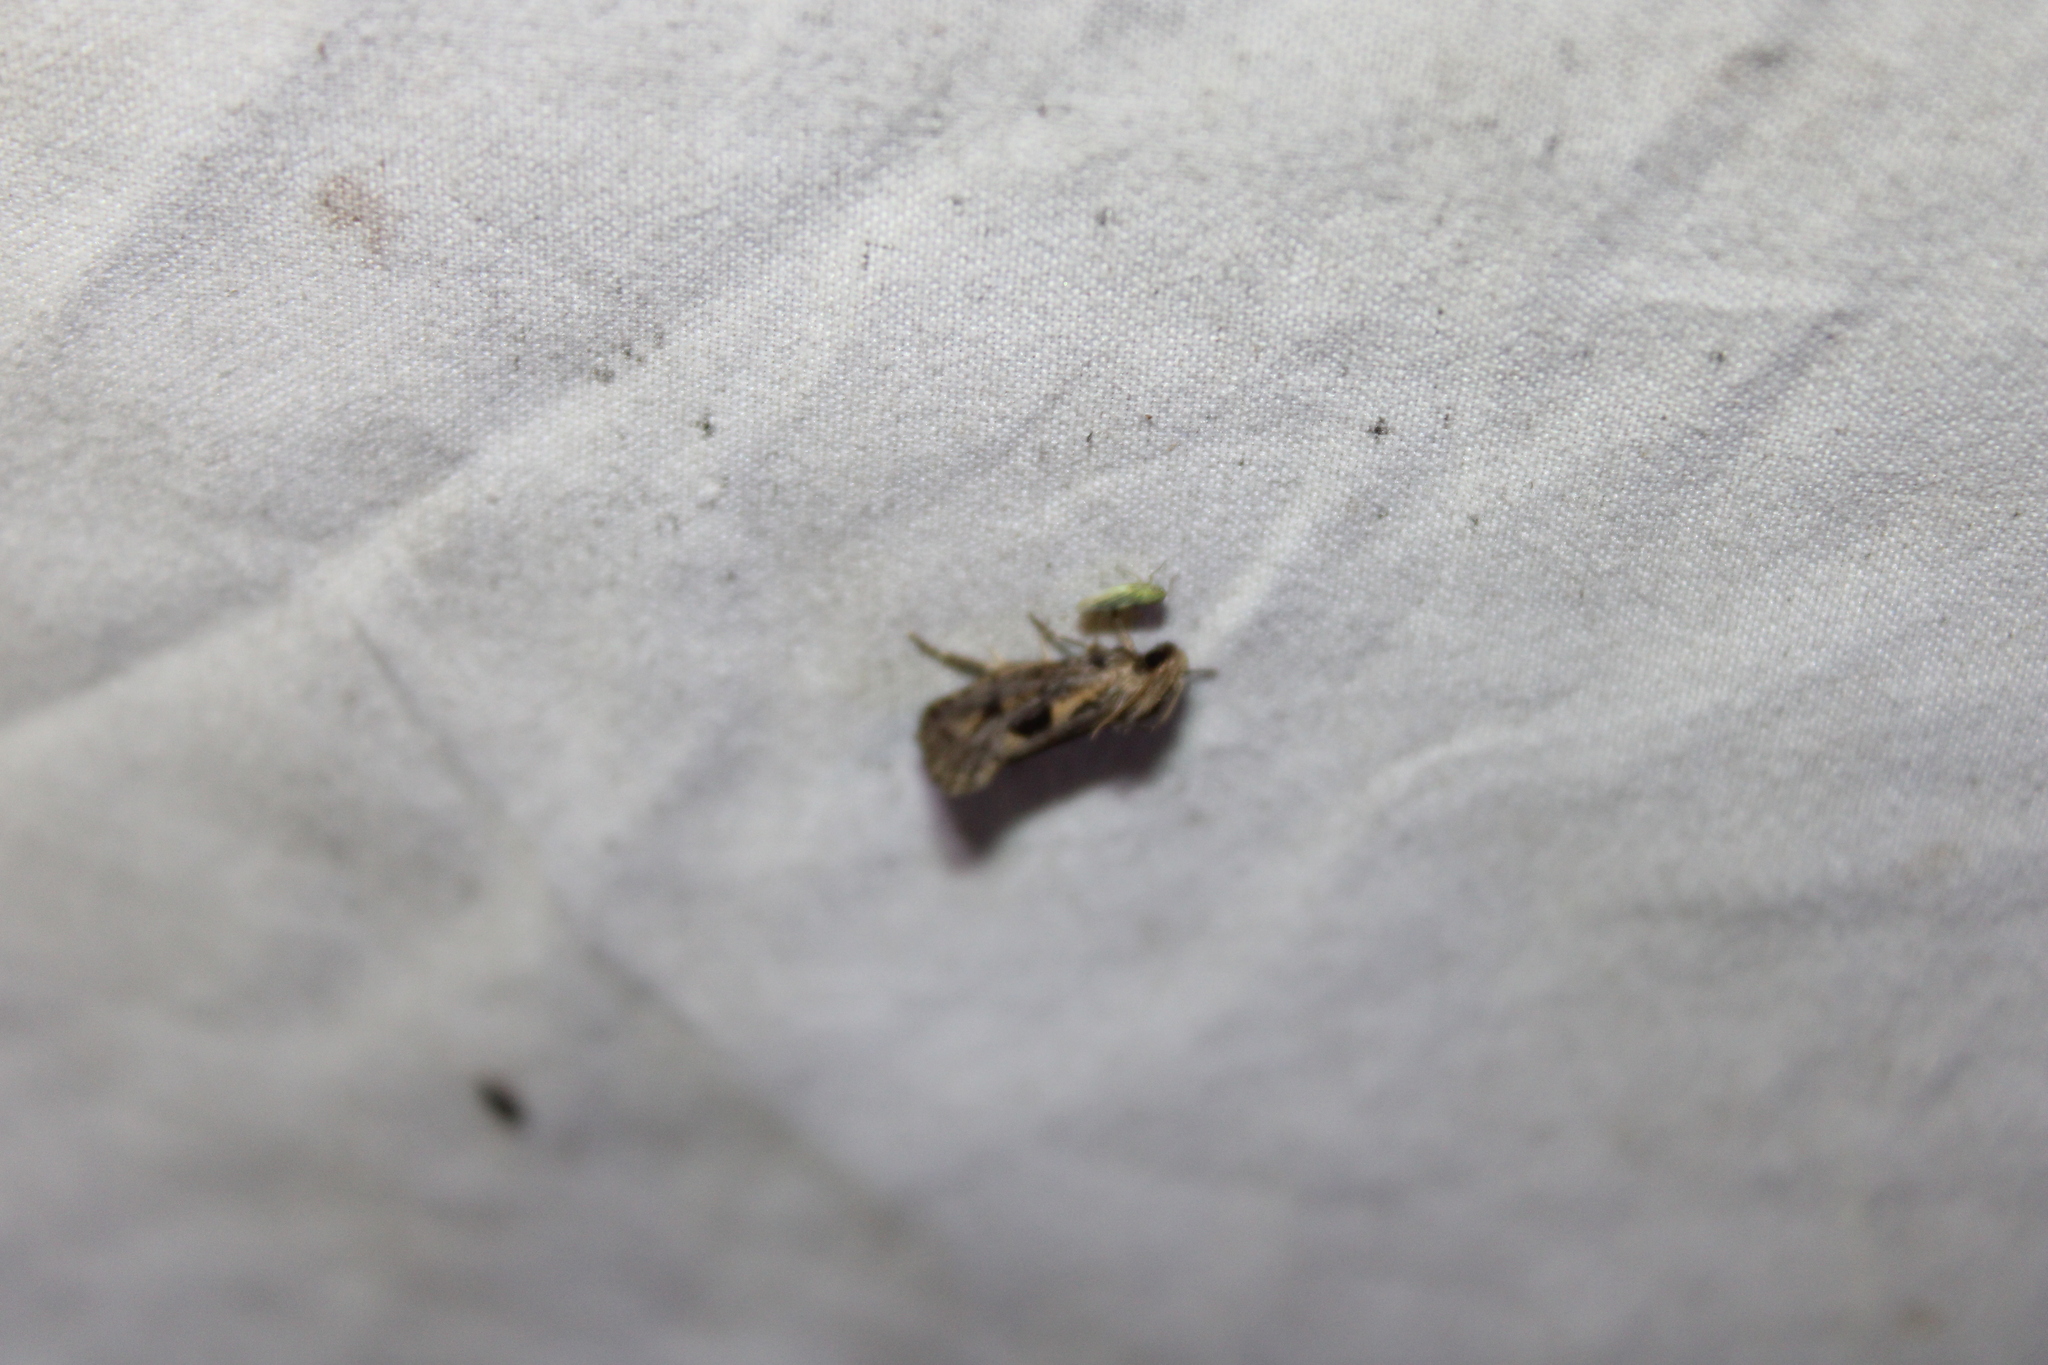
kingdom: Animalia
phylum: Arthropoda
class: Insecta
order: Lepidoptera
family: Tineidae
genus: Acrolophus
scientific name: Acrolophus popeanella
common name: Clemens' grass tubeworm moth
